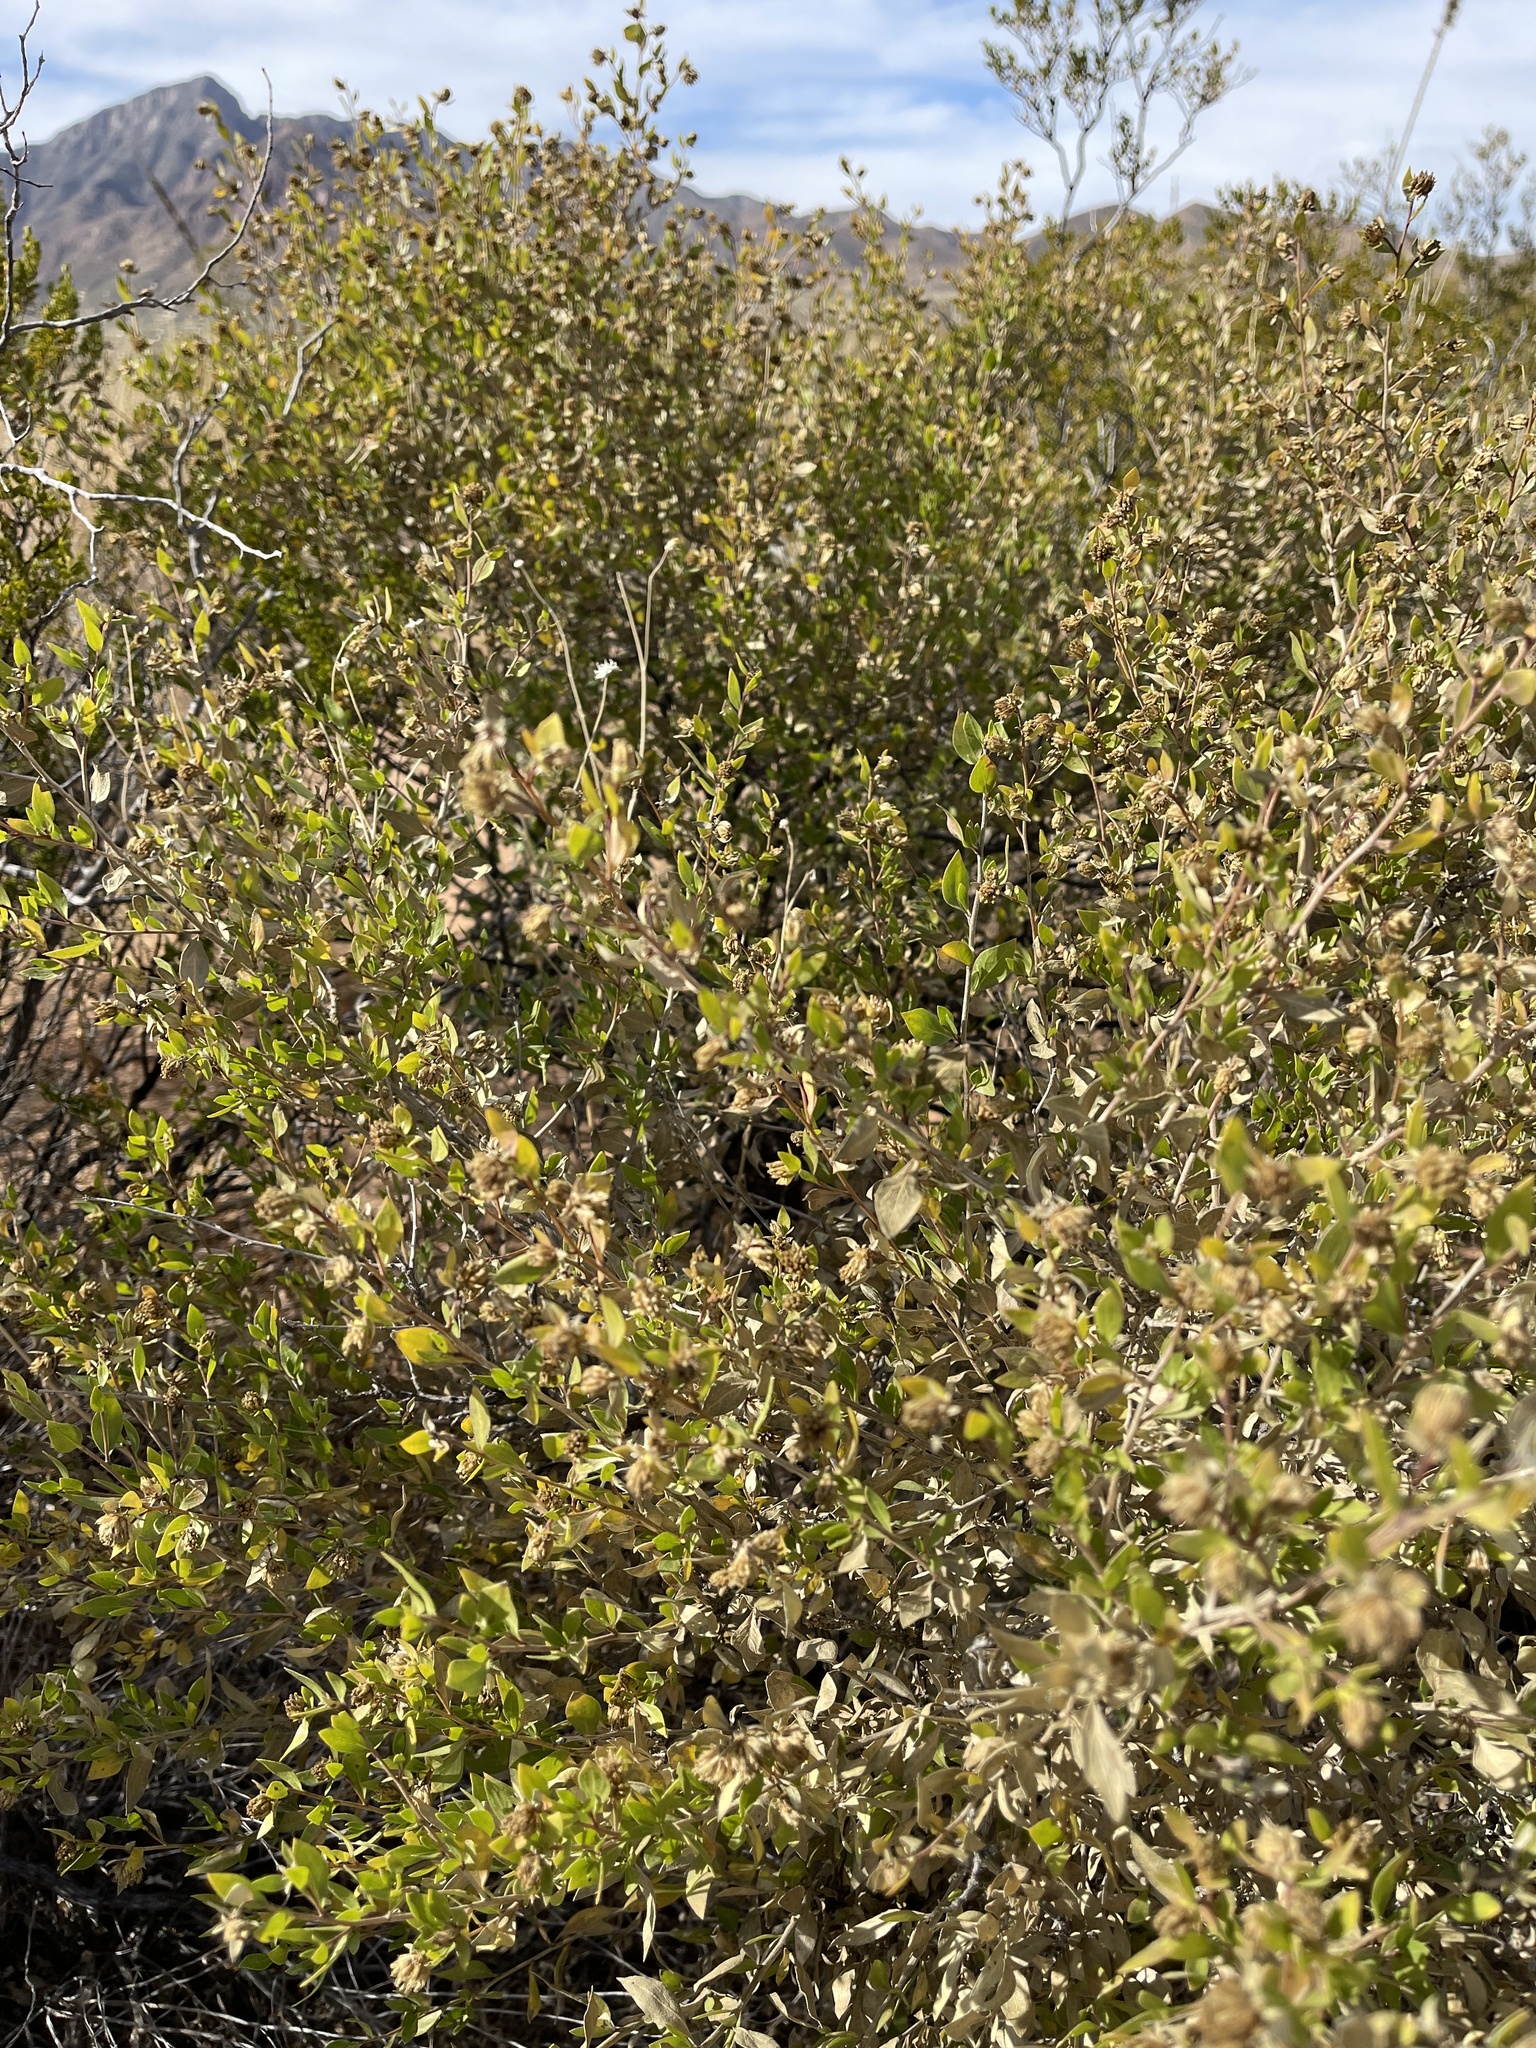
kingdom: Plantae
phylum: Tracheophyta
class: Magnoliopsida
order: Asterales
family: Asteraceae
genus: Flourensia
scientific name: Flourensia cernua
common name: Varnishbush
